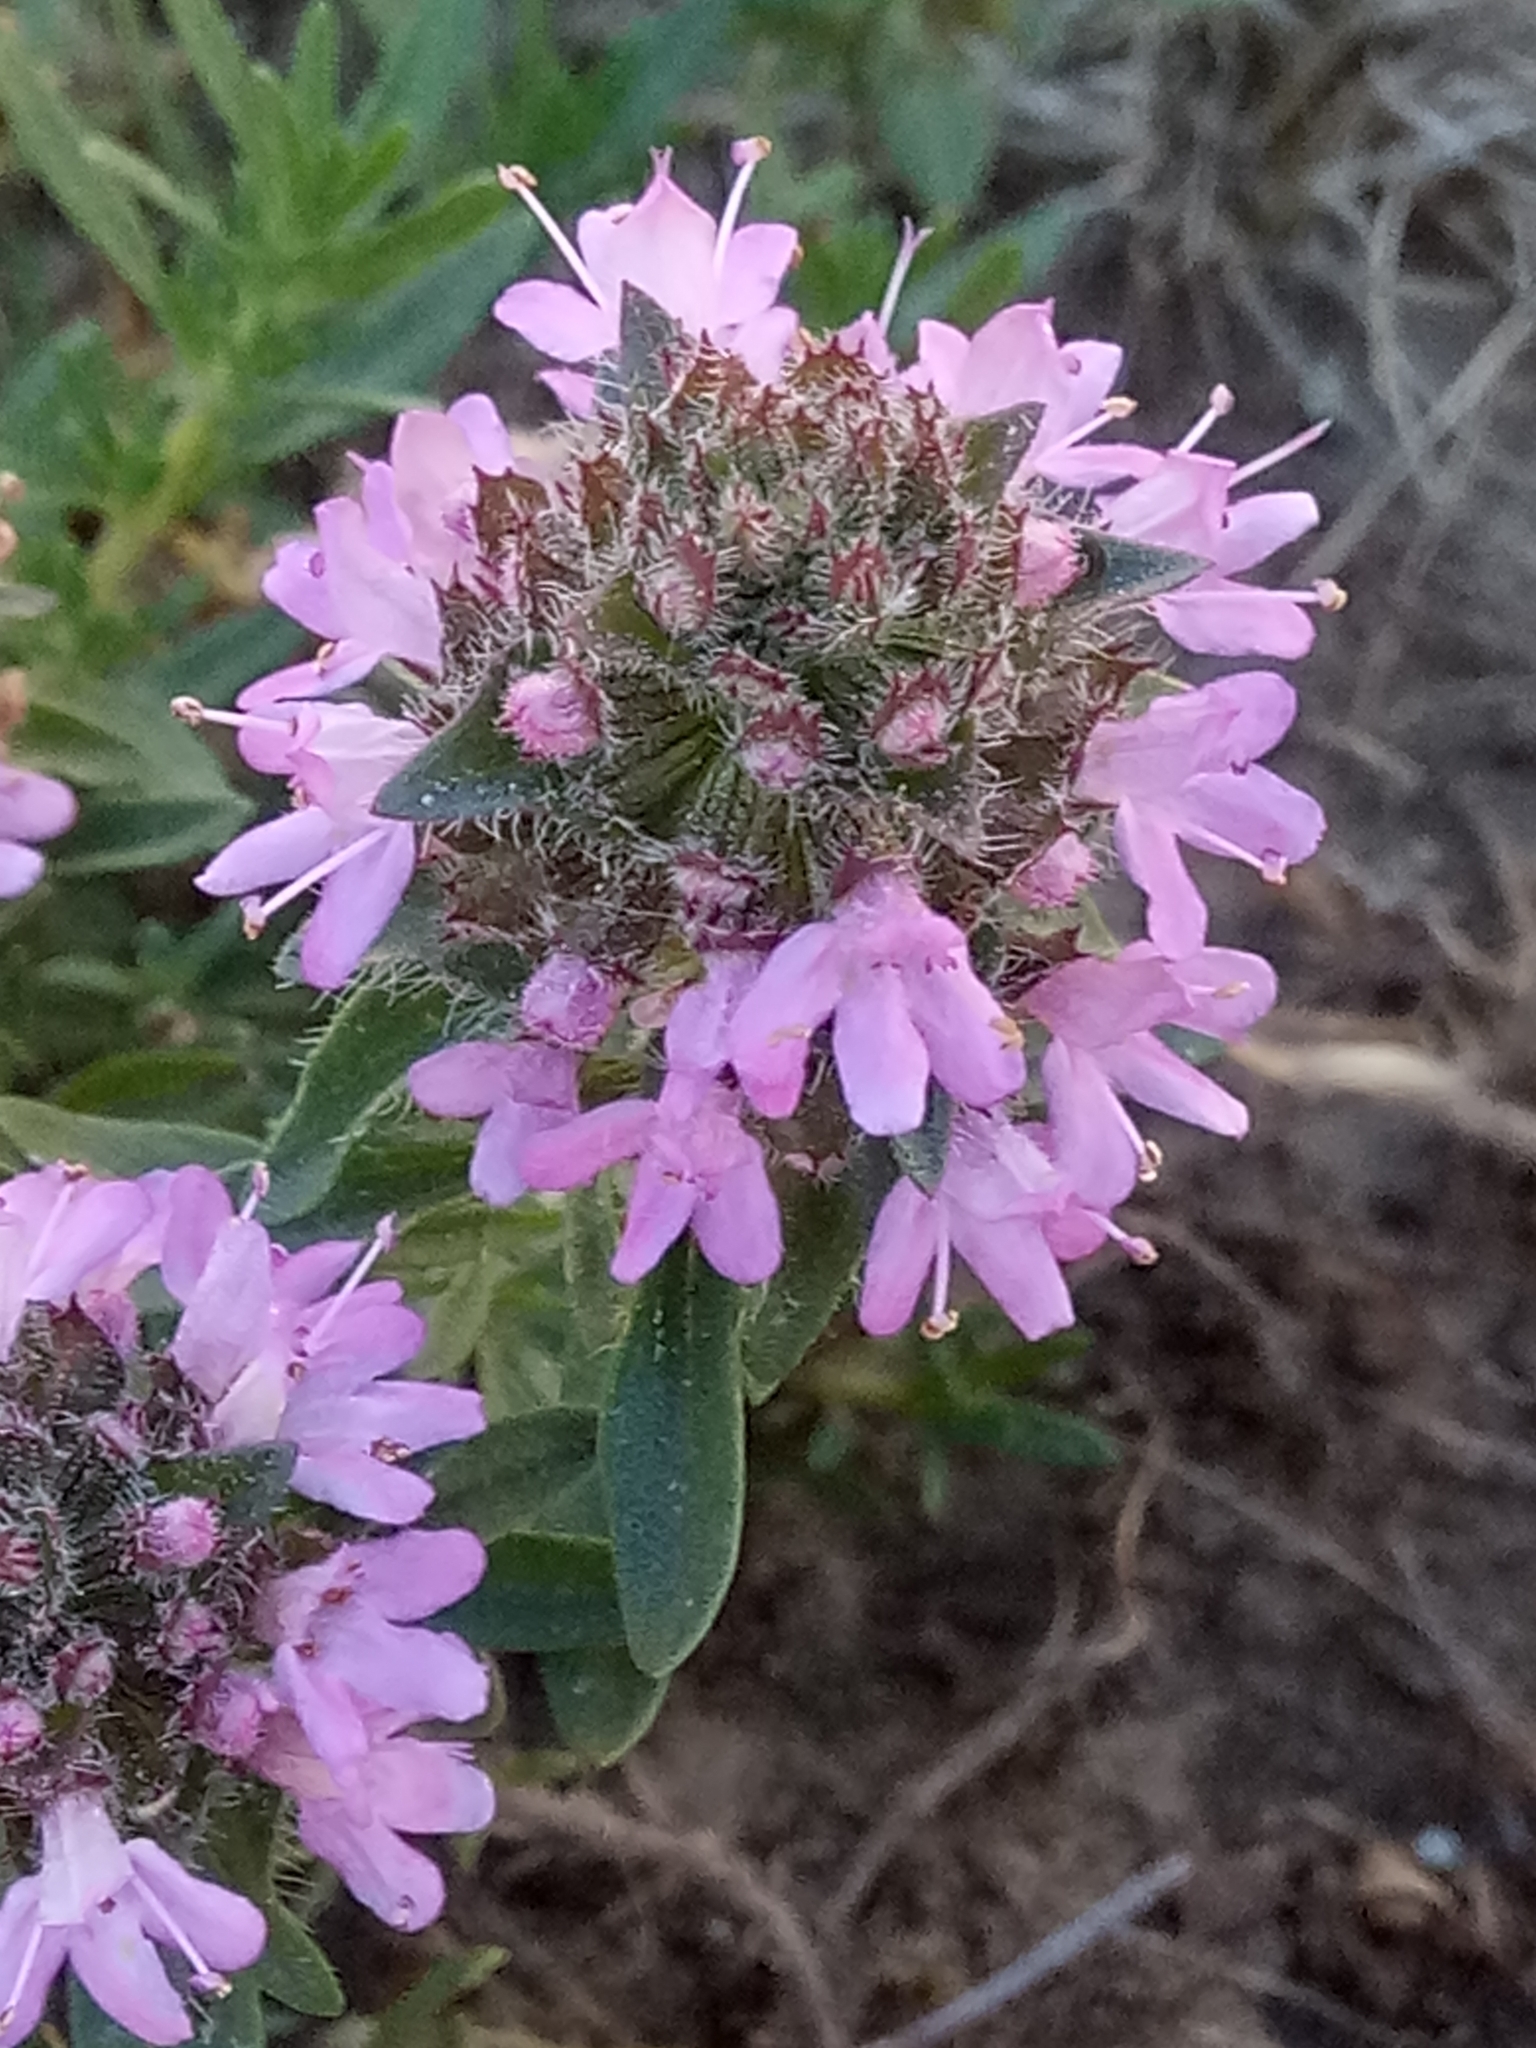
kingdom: Plantae
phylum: Tracheophyta
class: Magnoliopsida
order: Lamiales
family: Lamiaceae
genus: Thymus
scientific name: Thymus numidicus
